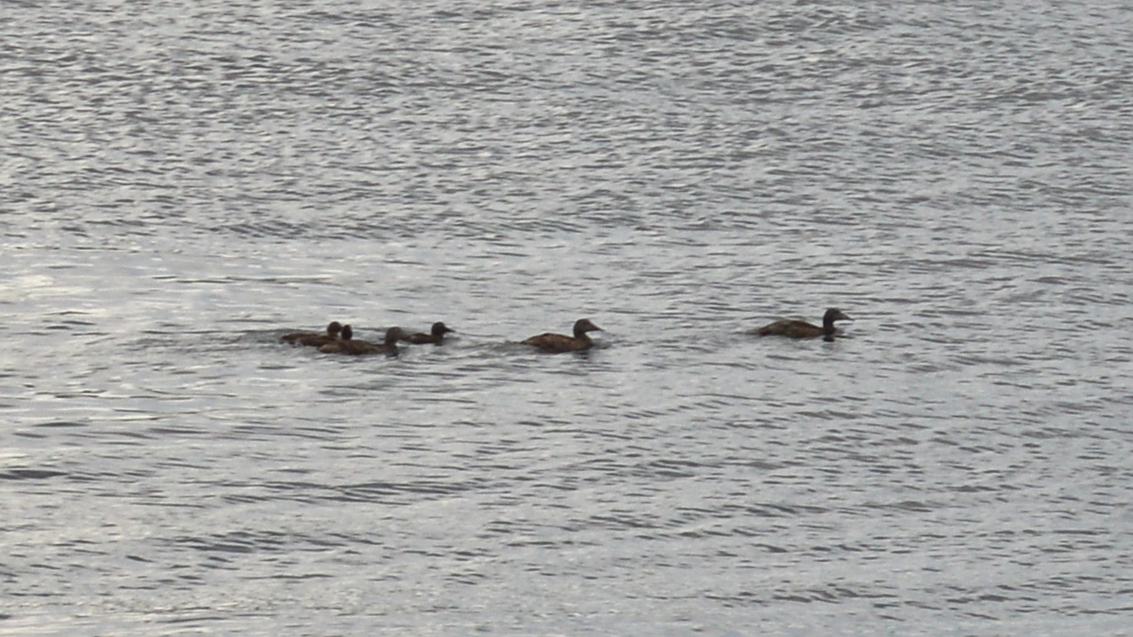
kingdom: Animalia
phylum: Chordata
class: Aves
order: Anseriformes
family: Anatidae
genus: Somateria
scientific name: Somateria mollissima
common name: Common eider
